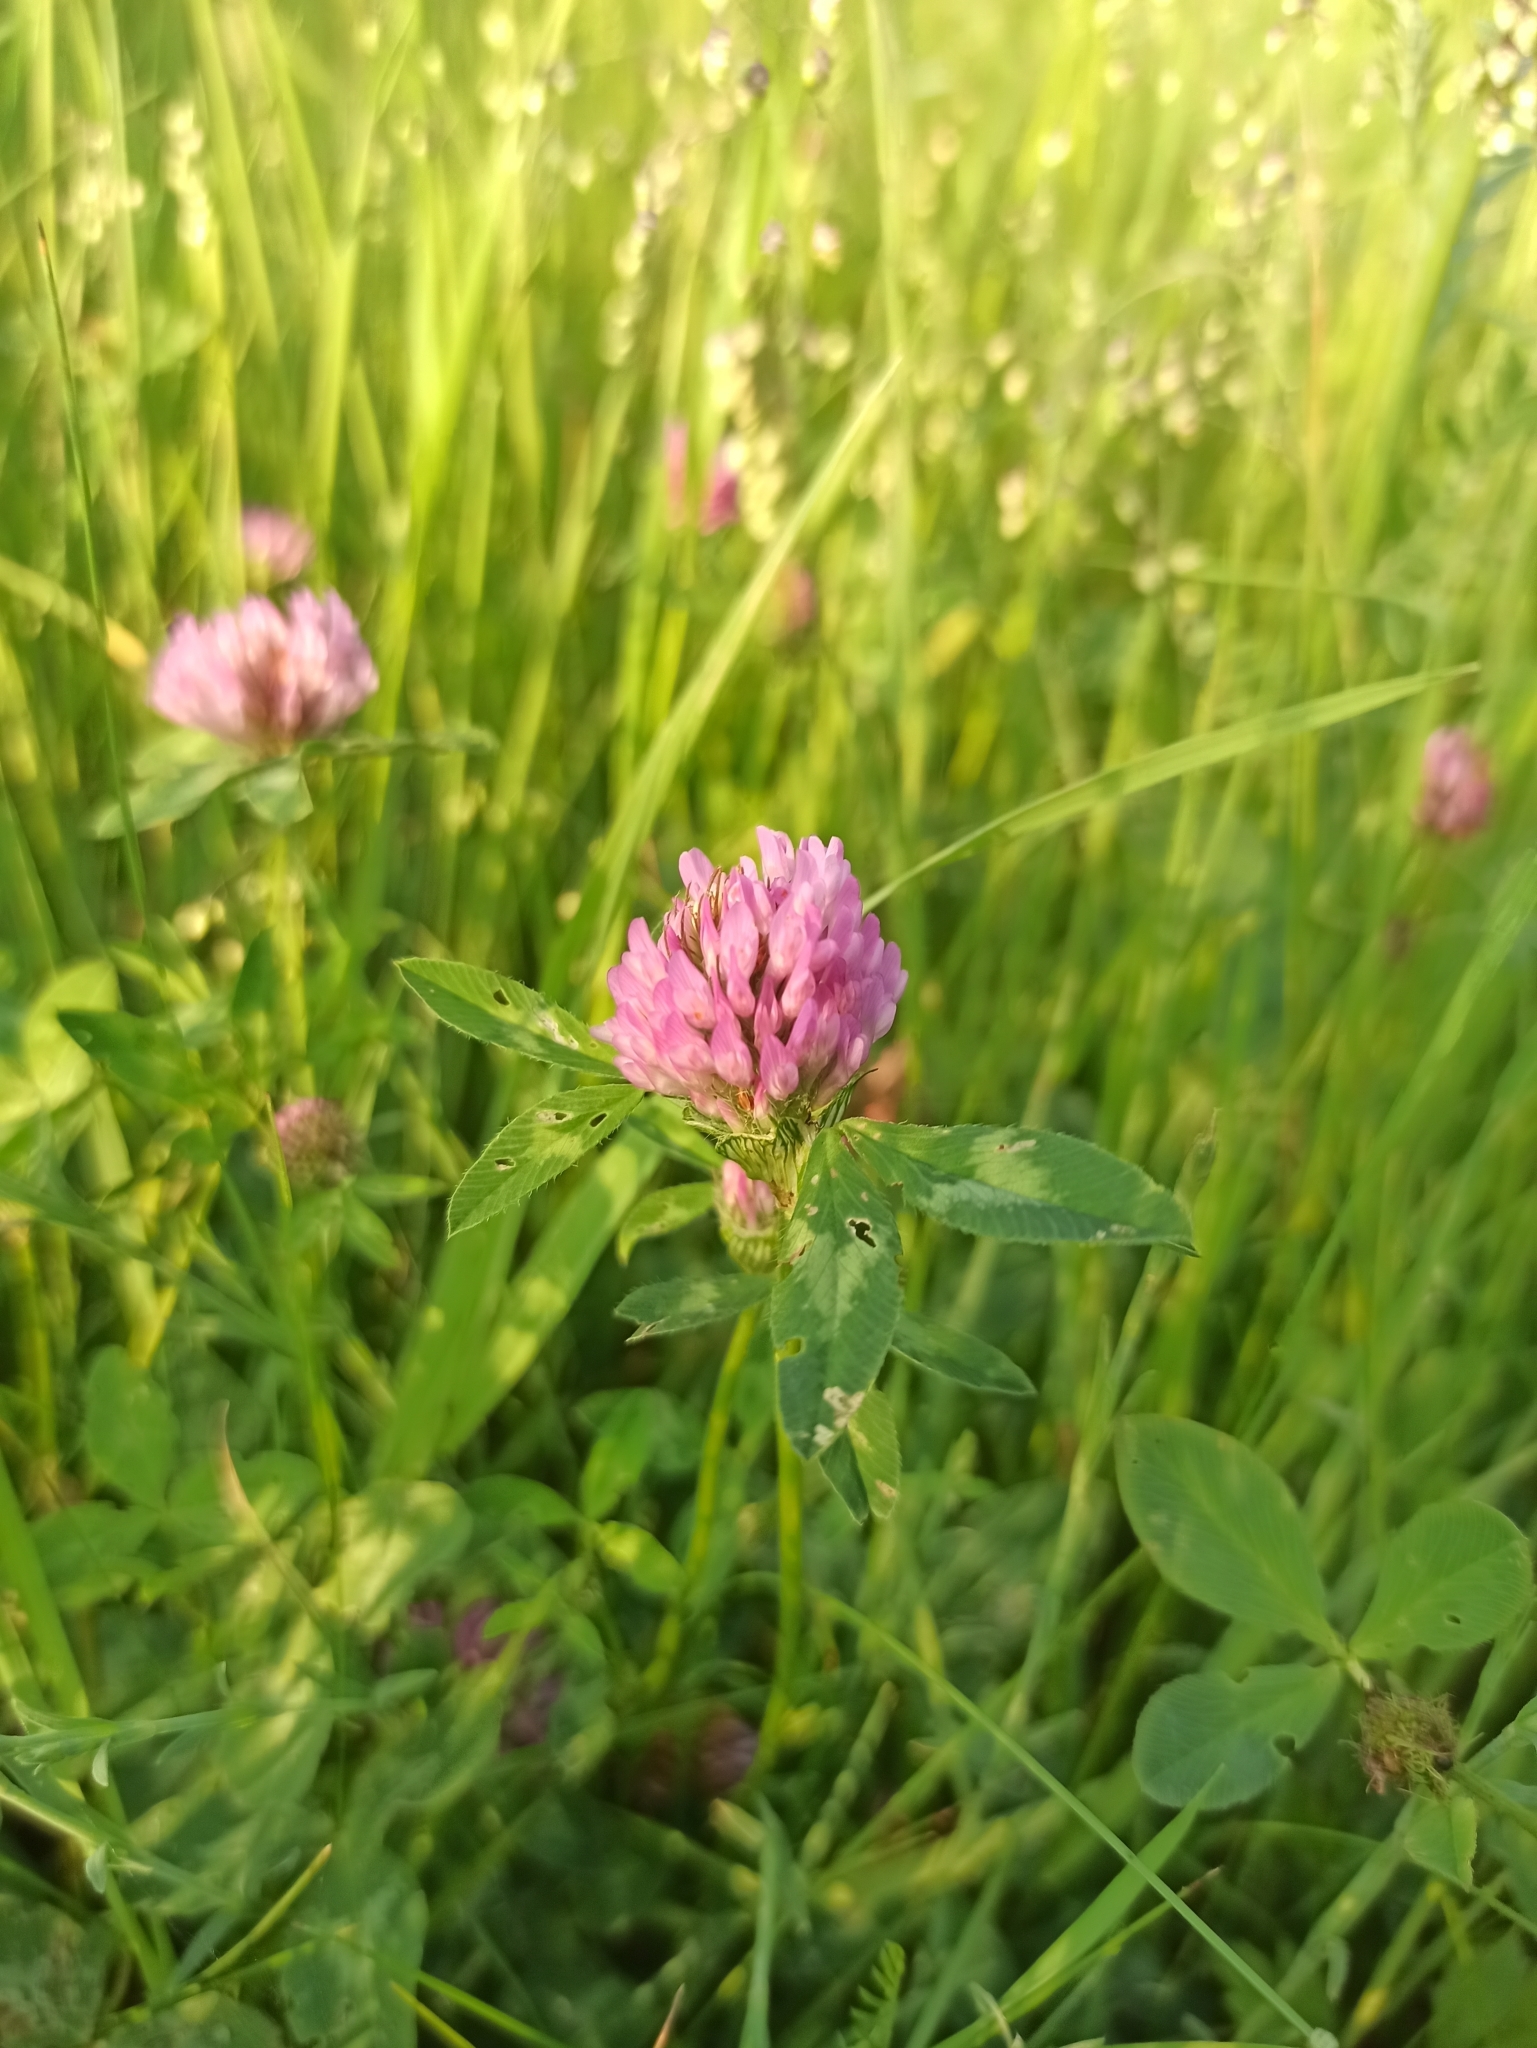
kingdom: Plantae
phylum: Tracheophyta
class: Magnoliopsida
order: Fabales
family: Fabaceae
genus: Trifolium
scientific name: Trifolium pratense
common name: Red clover
